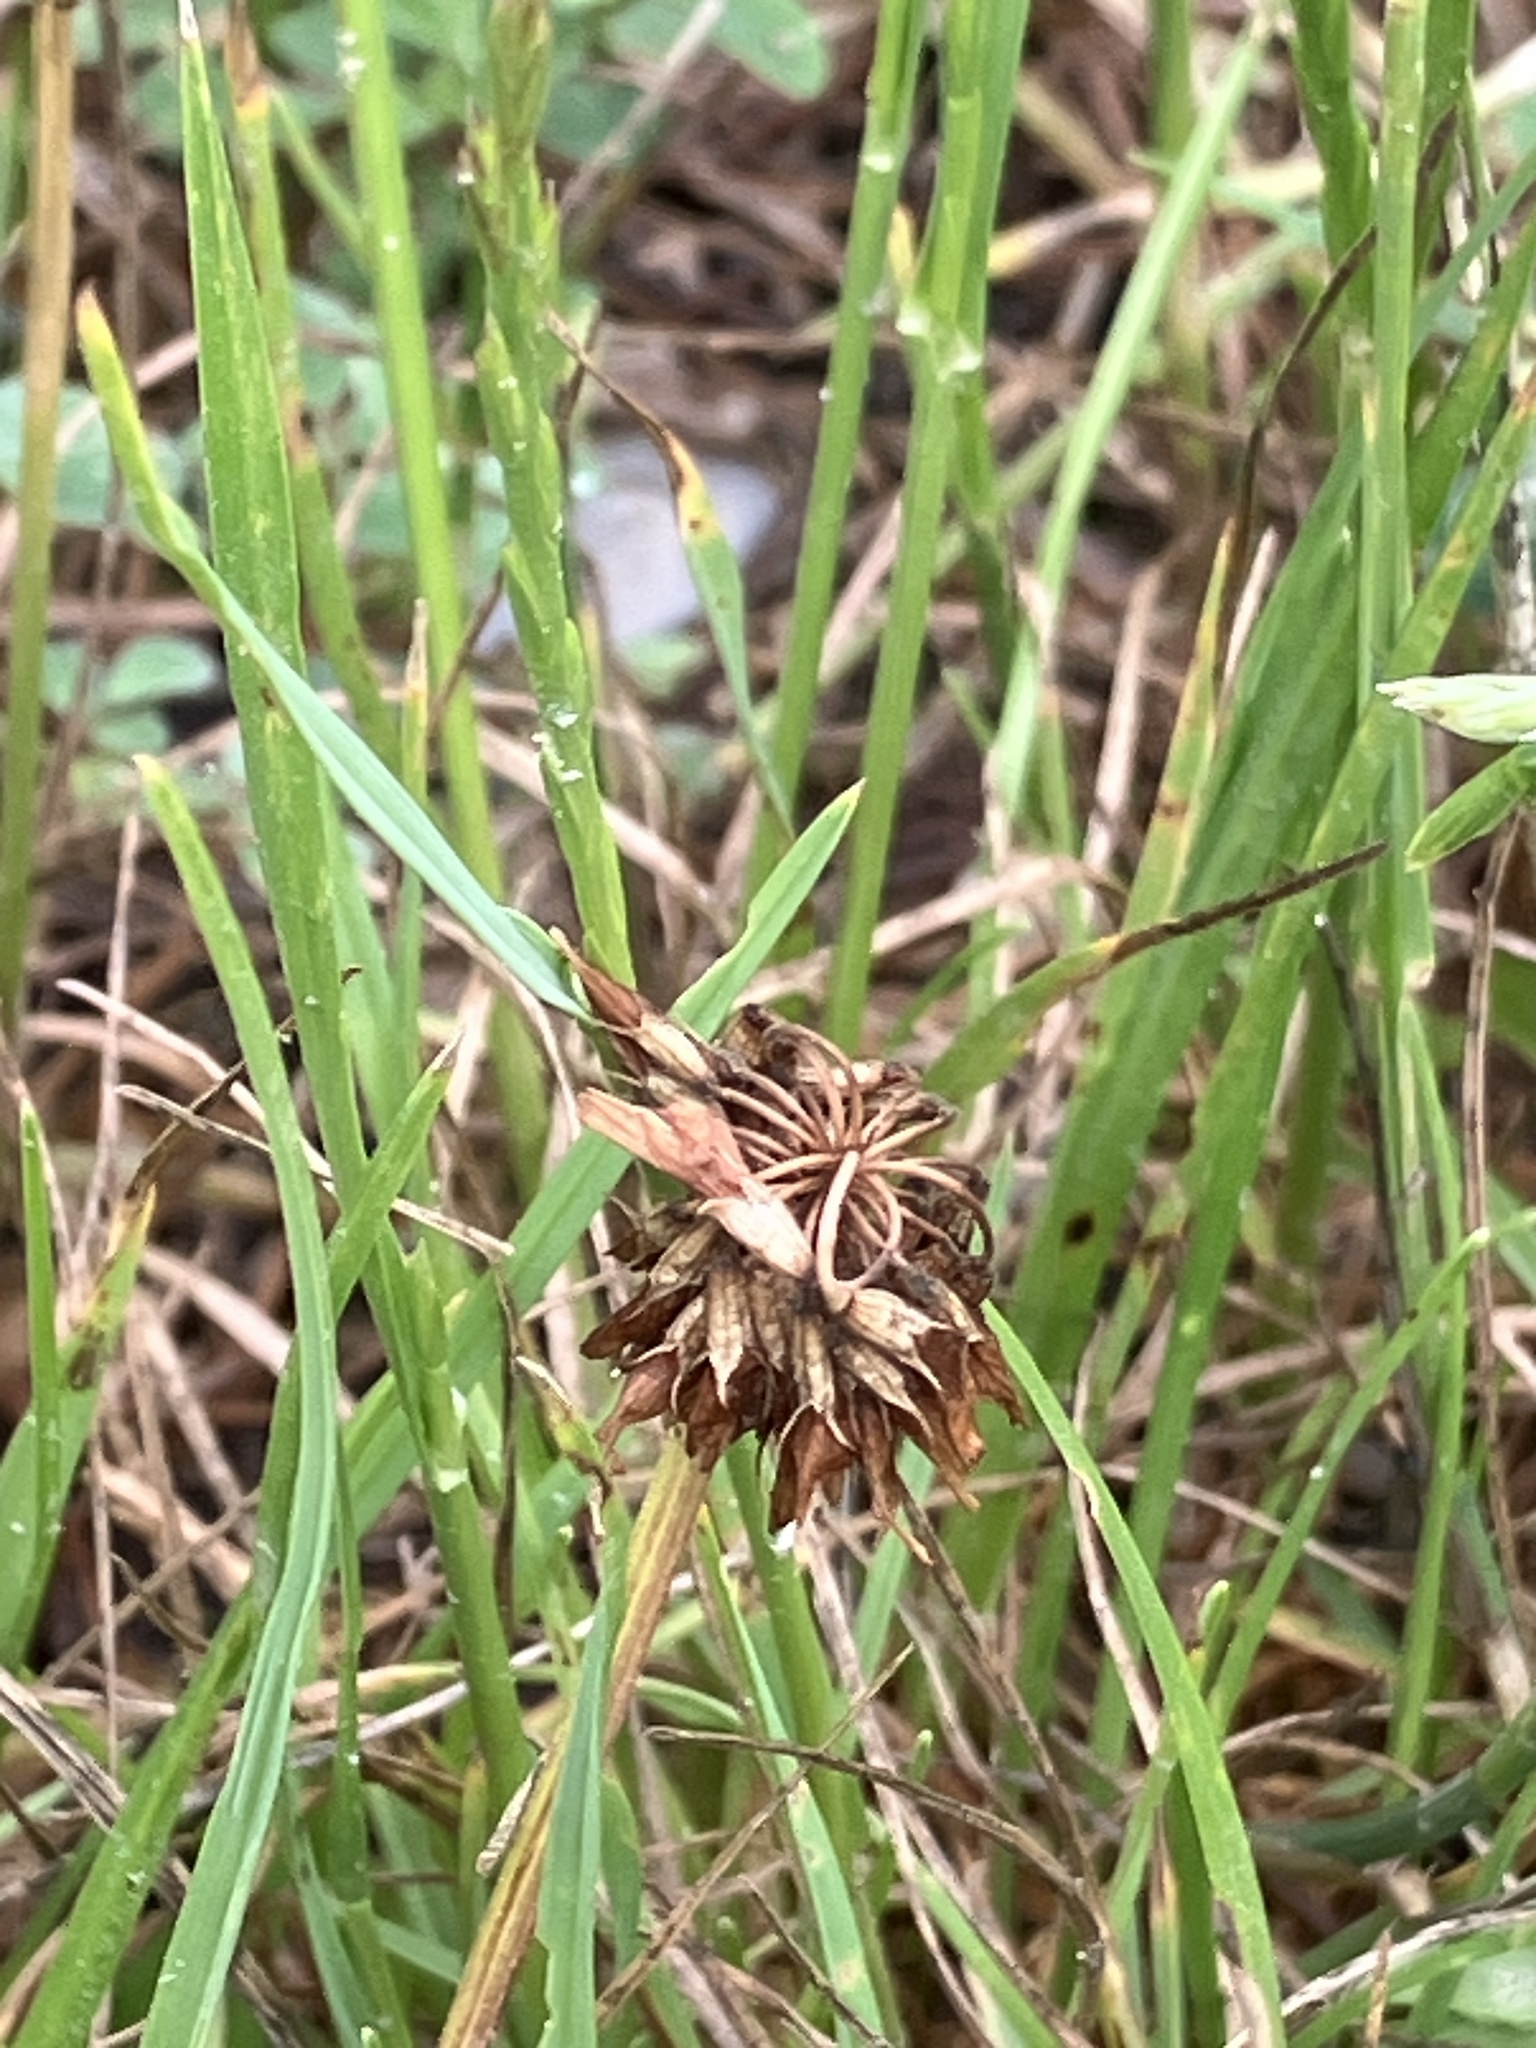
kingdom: Plantae
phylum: Tracheophyta
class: Magnoliopsida
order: Fabales
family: Fabaceae
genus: Trifolium
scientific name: Trifolium repens
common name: White clover
